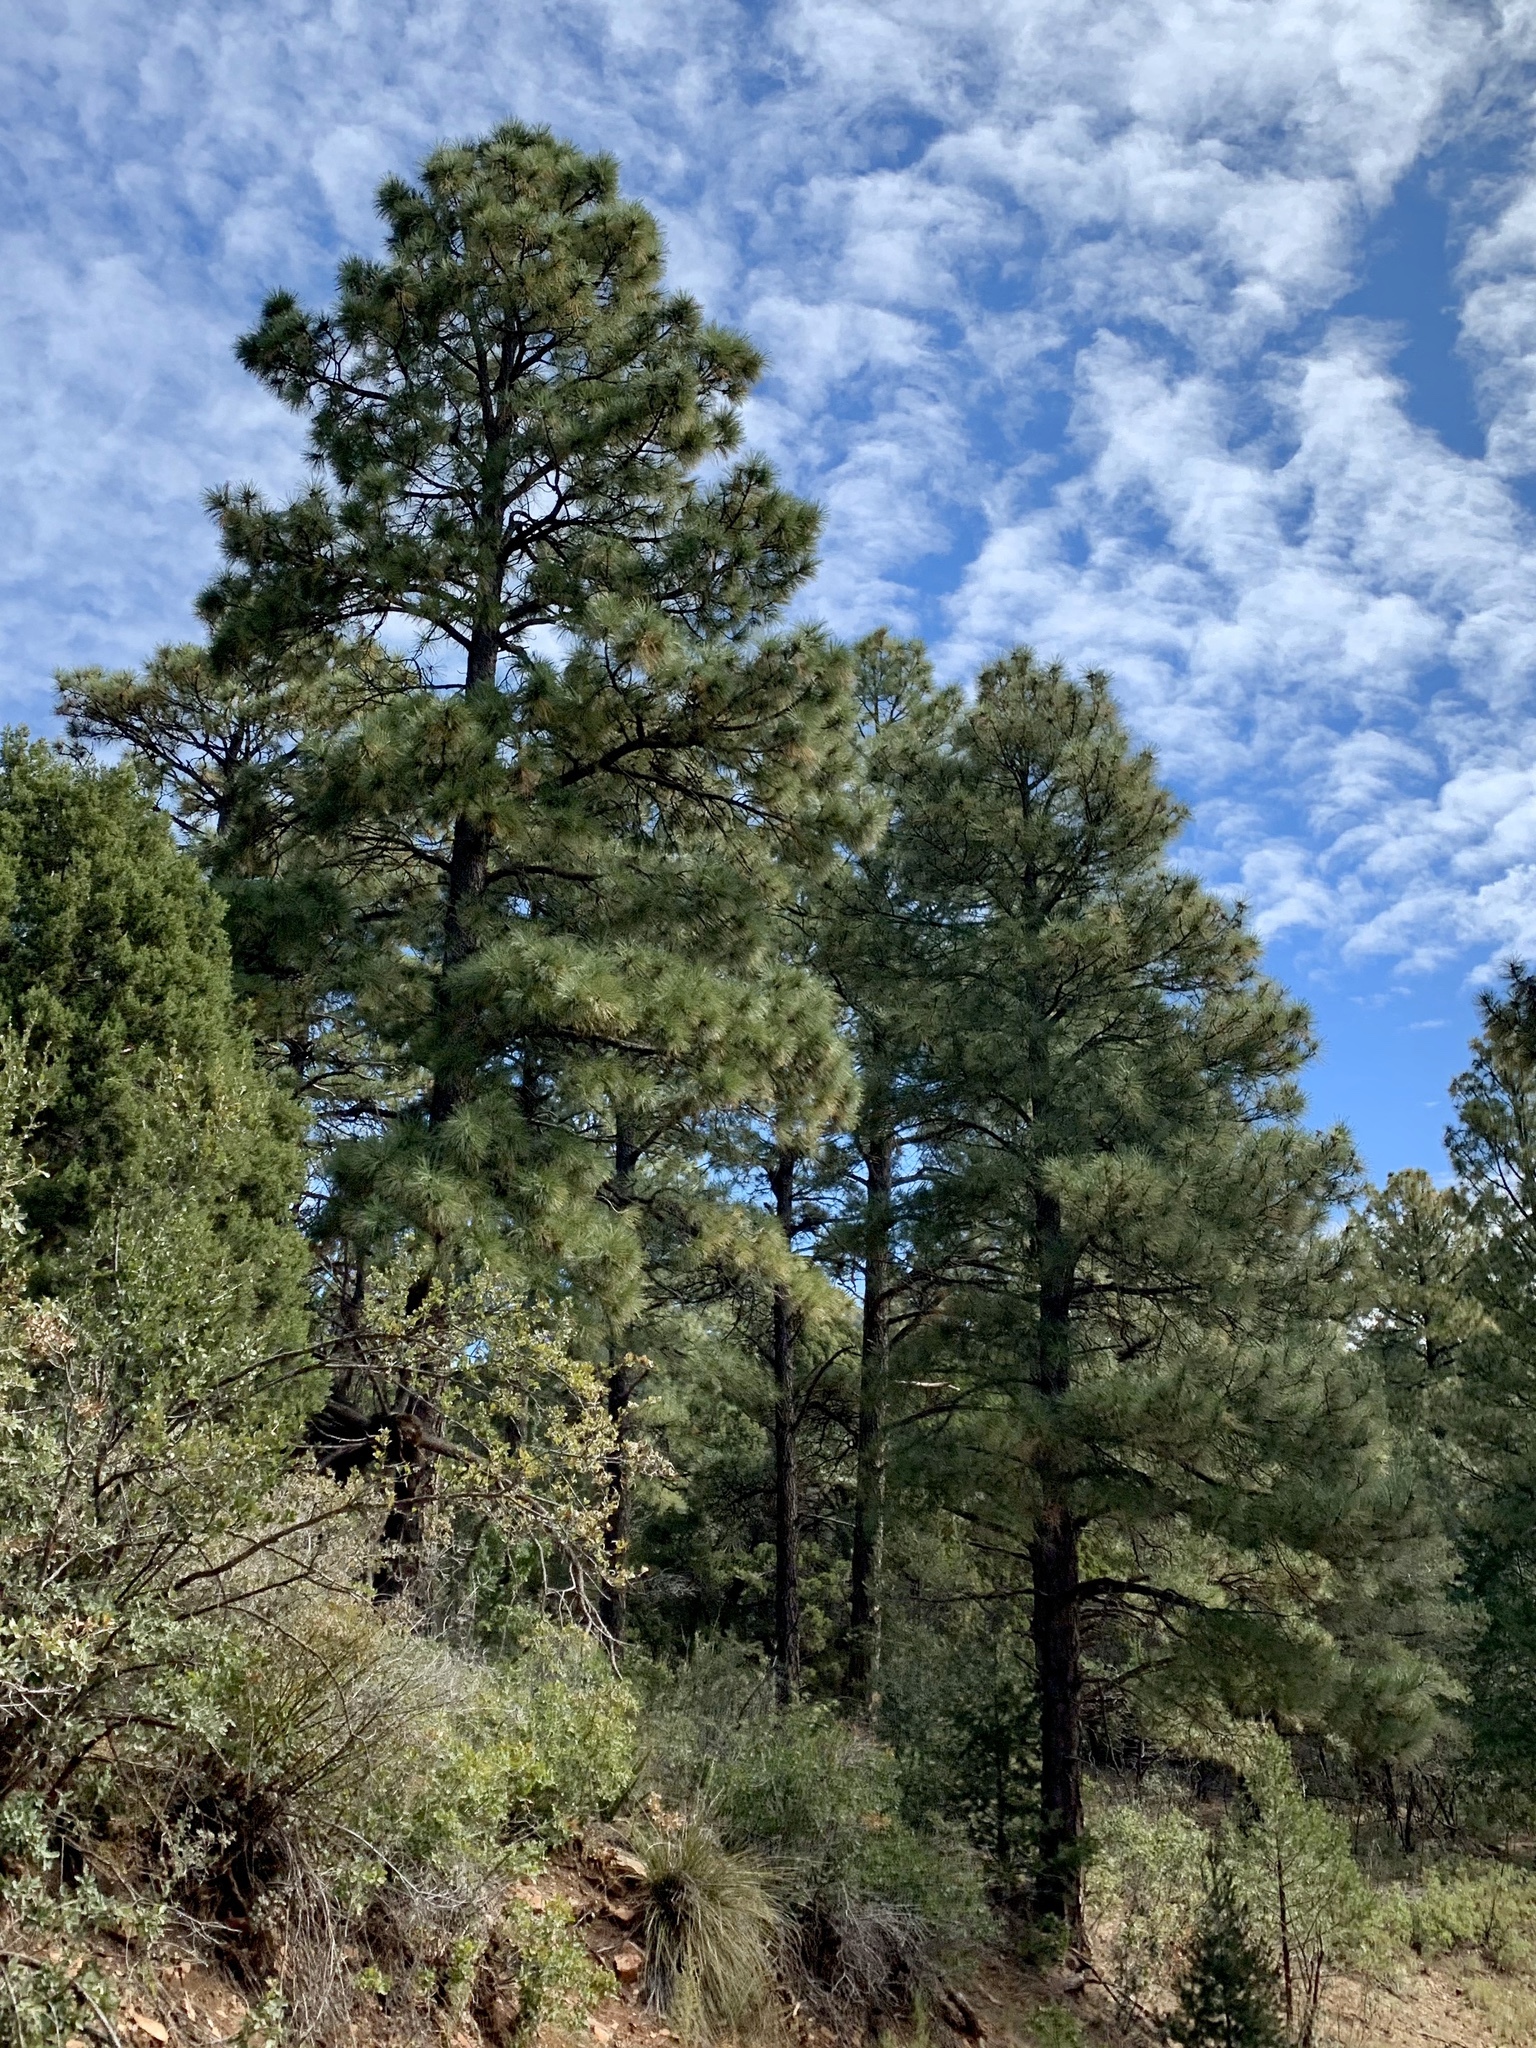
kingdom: Plantae
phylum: Tracheophyta
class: Pinopsida
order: Pinales
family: Pinaceae
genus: Pinus
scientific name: Pinus ponderosa
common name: Western yellow-pine
